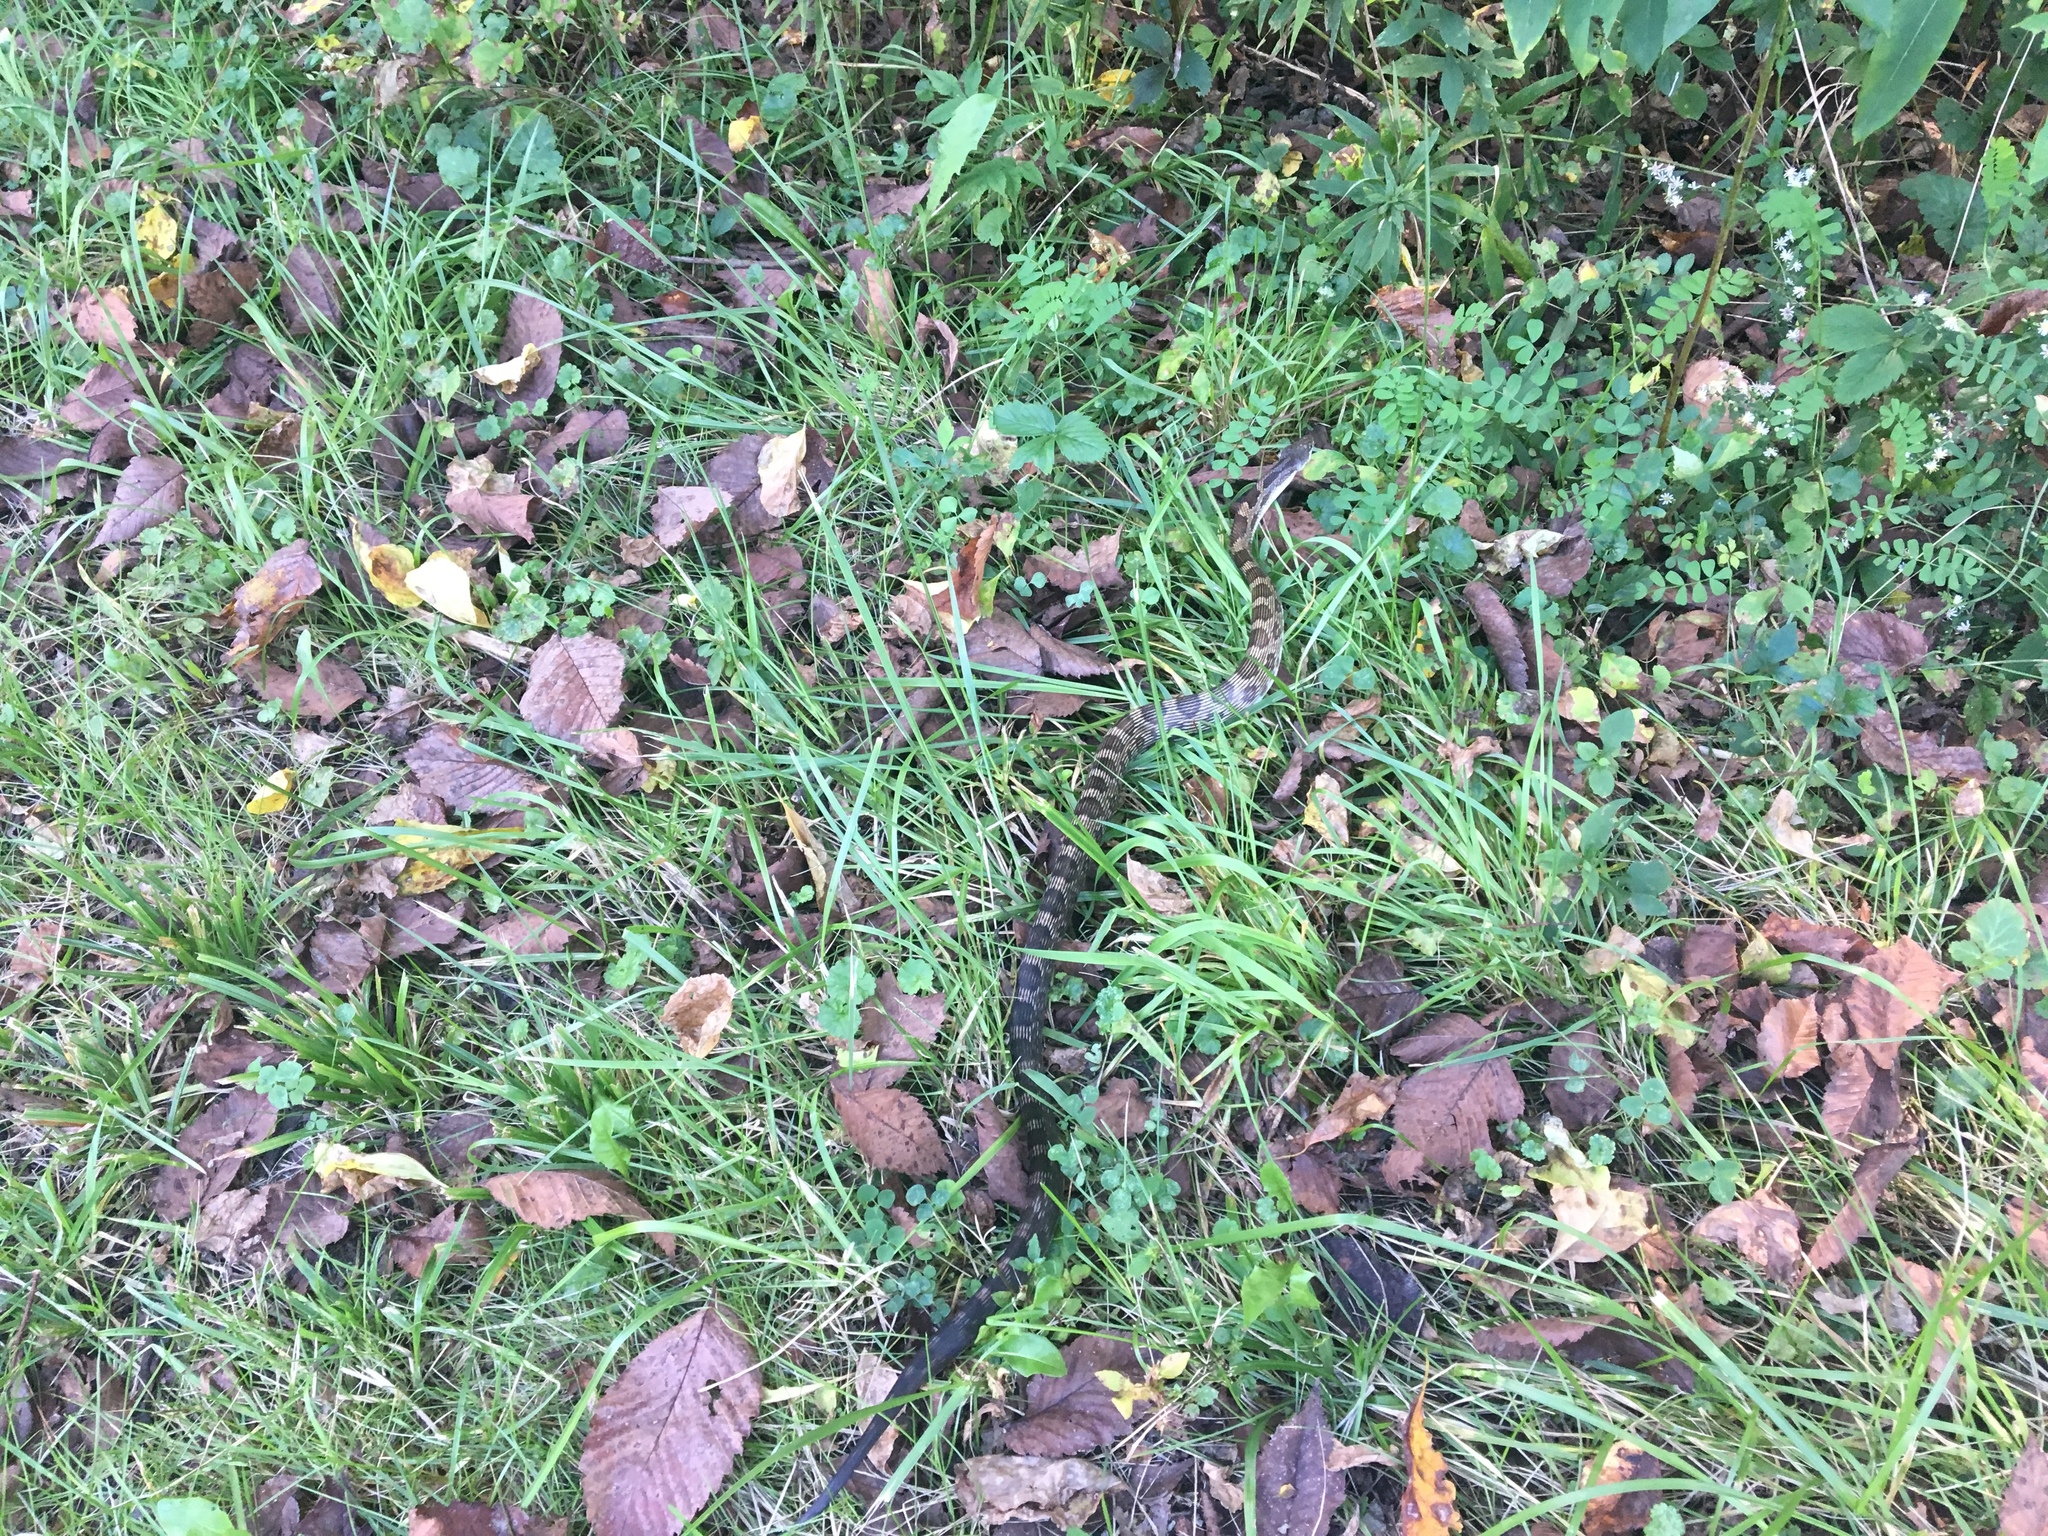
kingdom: Animalia
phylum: Chordata
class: Squamata
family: Colubridae
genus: Pantherophis
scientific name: Pantherophis spiloides
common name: Gray rat snake
